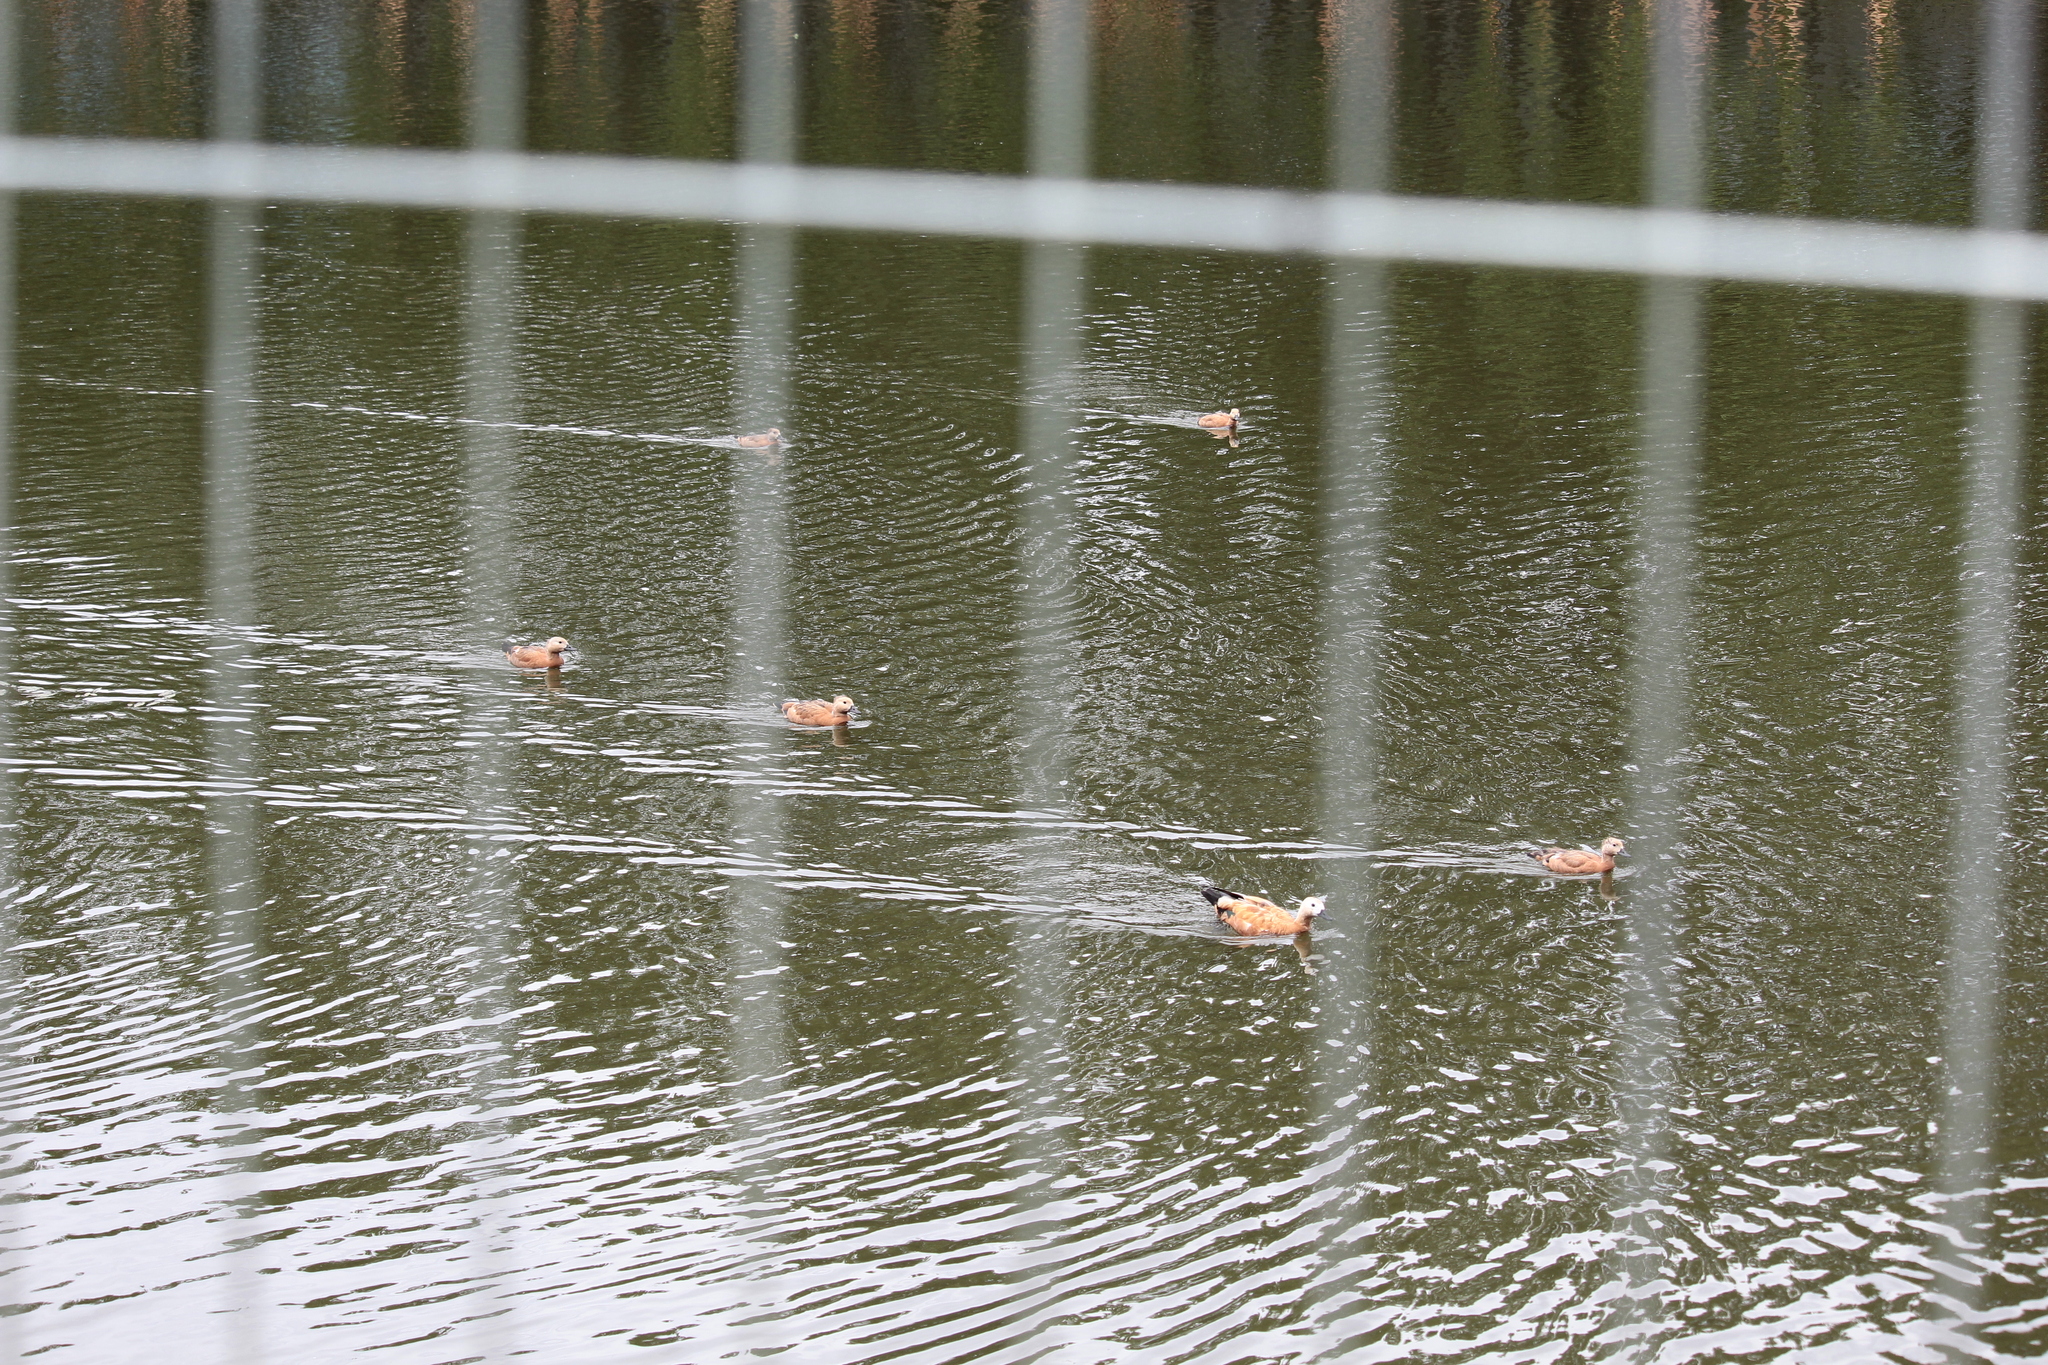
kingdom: Animalia
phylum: Chordata
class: Aves
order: Anseriformes
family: Anatidae
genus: Tadorna
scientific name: Tadorna ferruginea
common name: Ruddy shelduck
